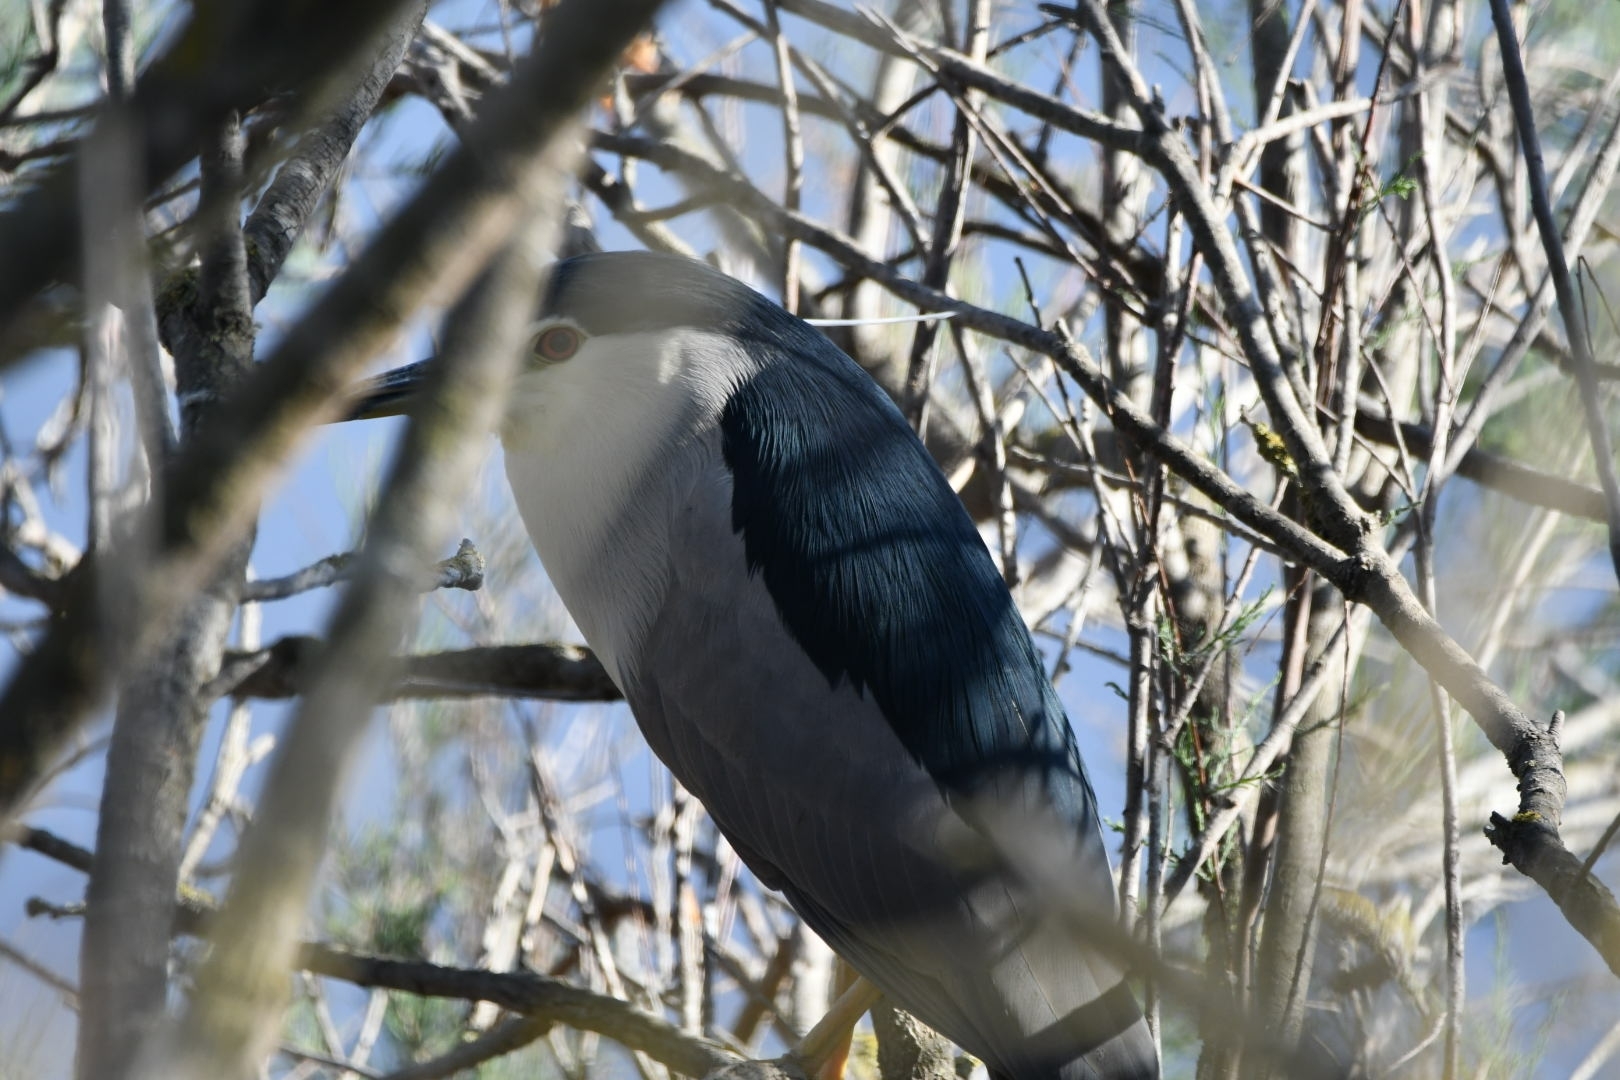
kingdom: Animalia
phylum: Chordata
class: Aves
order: Pelecaniformes
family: Ardeidae
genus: Nycticorax
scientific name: Nycticorax nycticorax
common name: Black-crowned night heron
